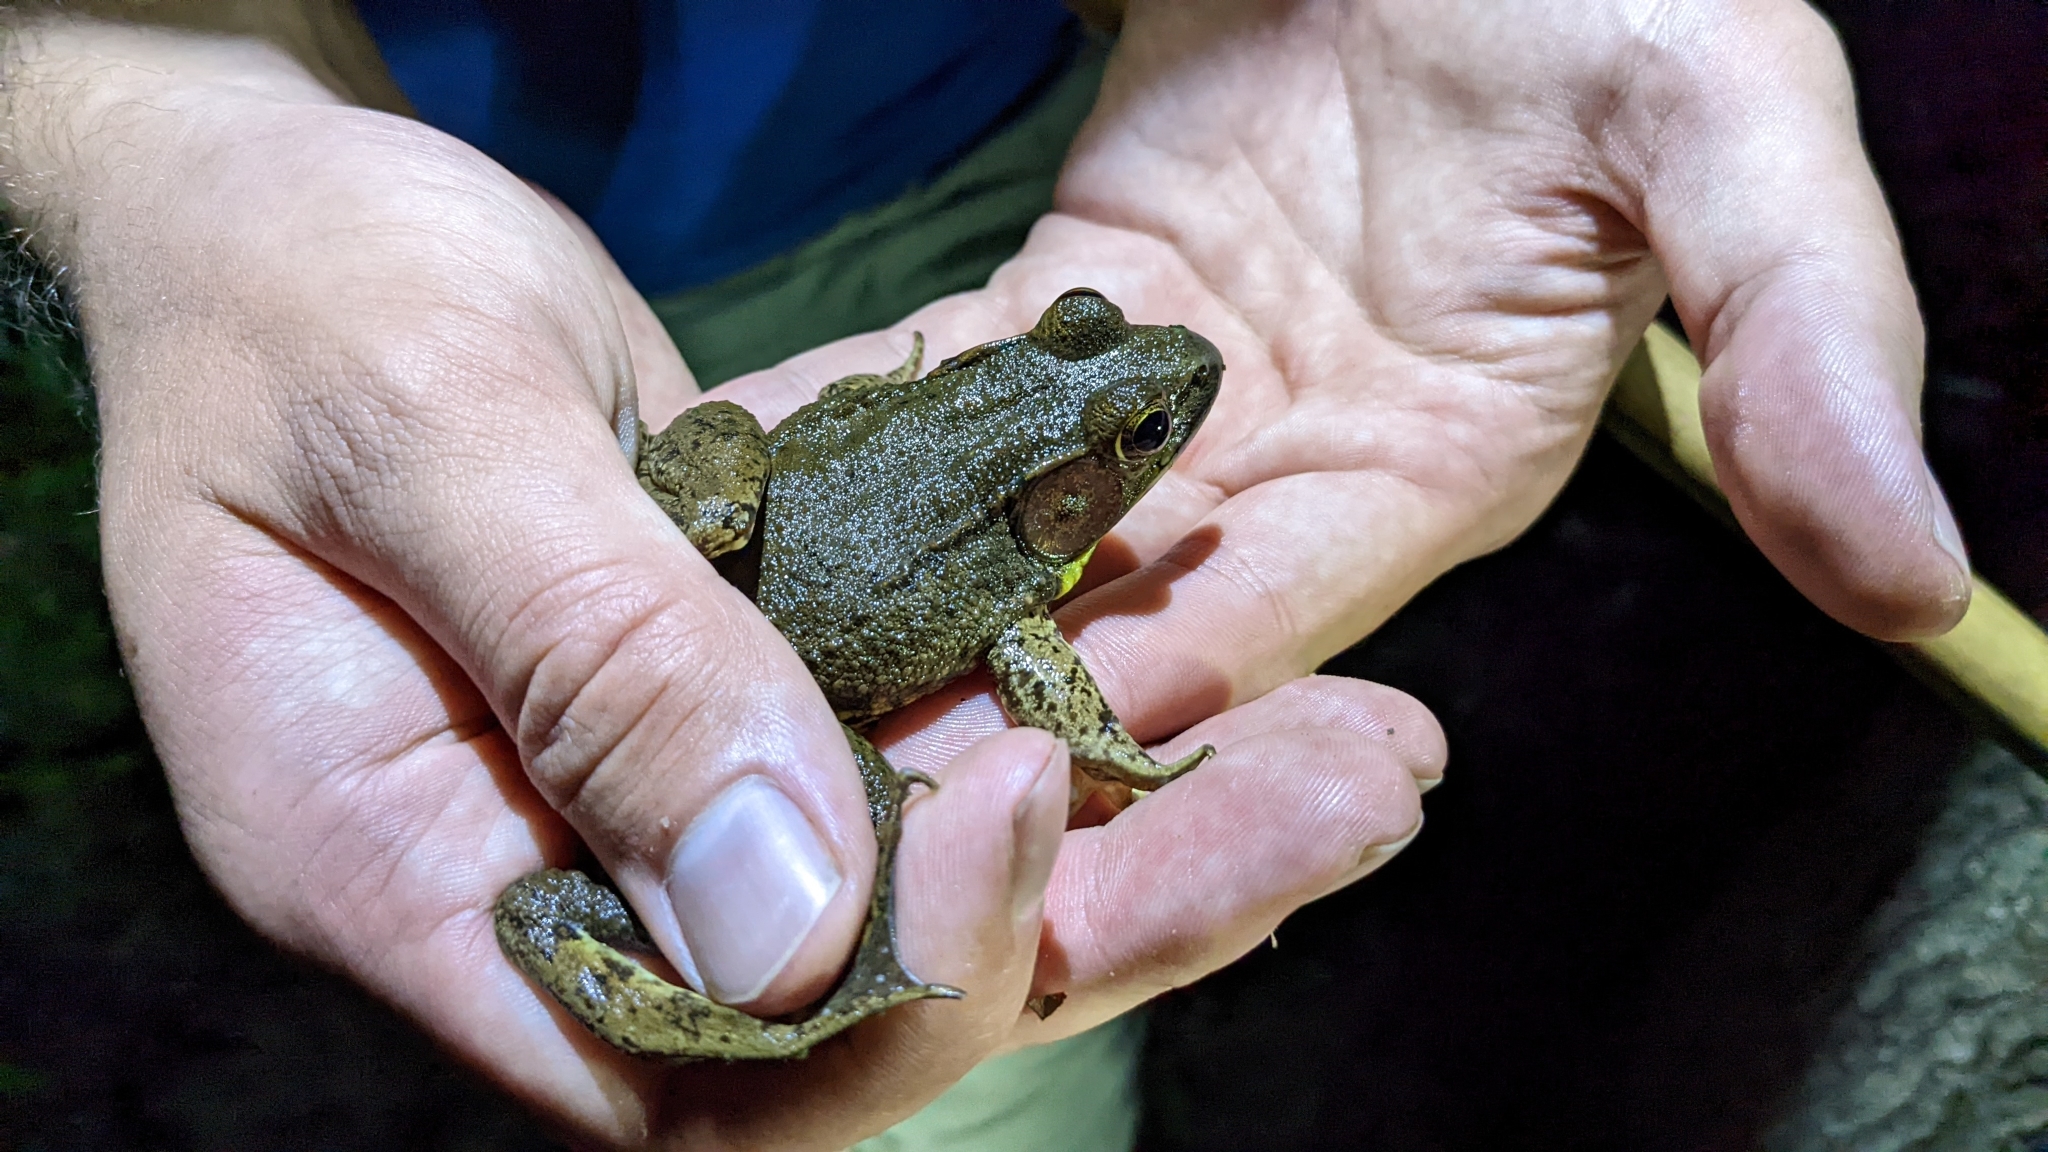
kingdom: Animalia
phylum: Chordata
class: Amphibia
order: Anura
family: Ranidae
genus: Lithobates
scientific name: Lithobates clamitans
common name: Green frog
